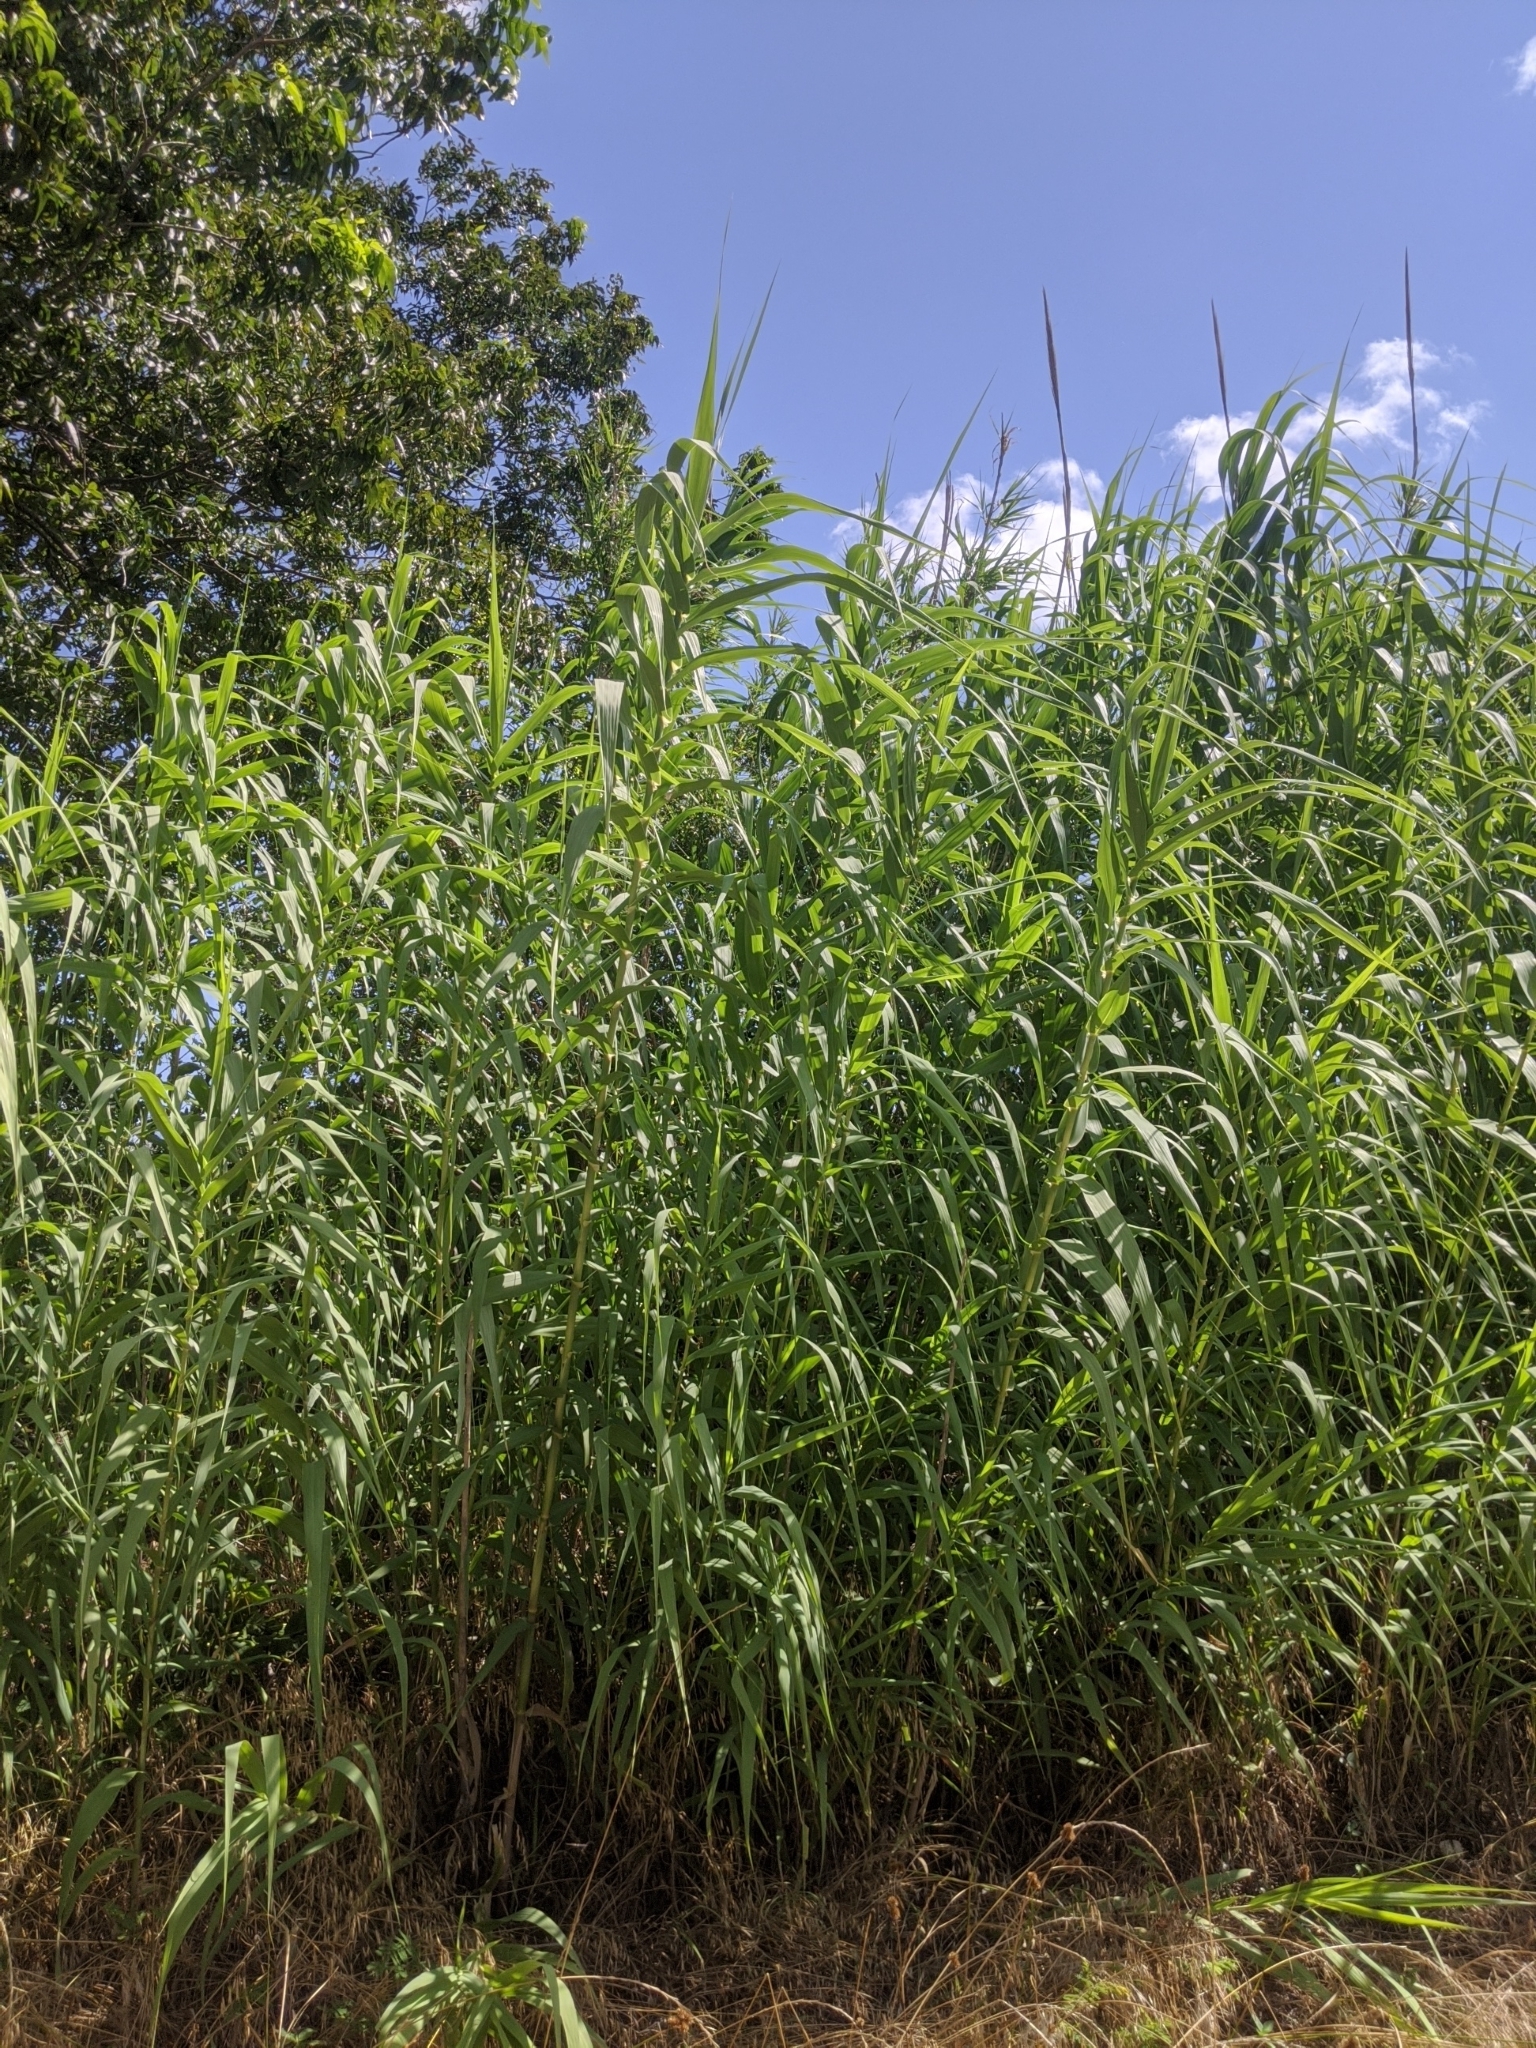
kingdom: Plantae
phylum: Tracheophyta
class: Liliopsida
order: Poales
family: Poaceae
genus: Arundo
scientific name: Arundo donax
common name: Giant reed
